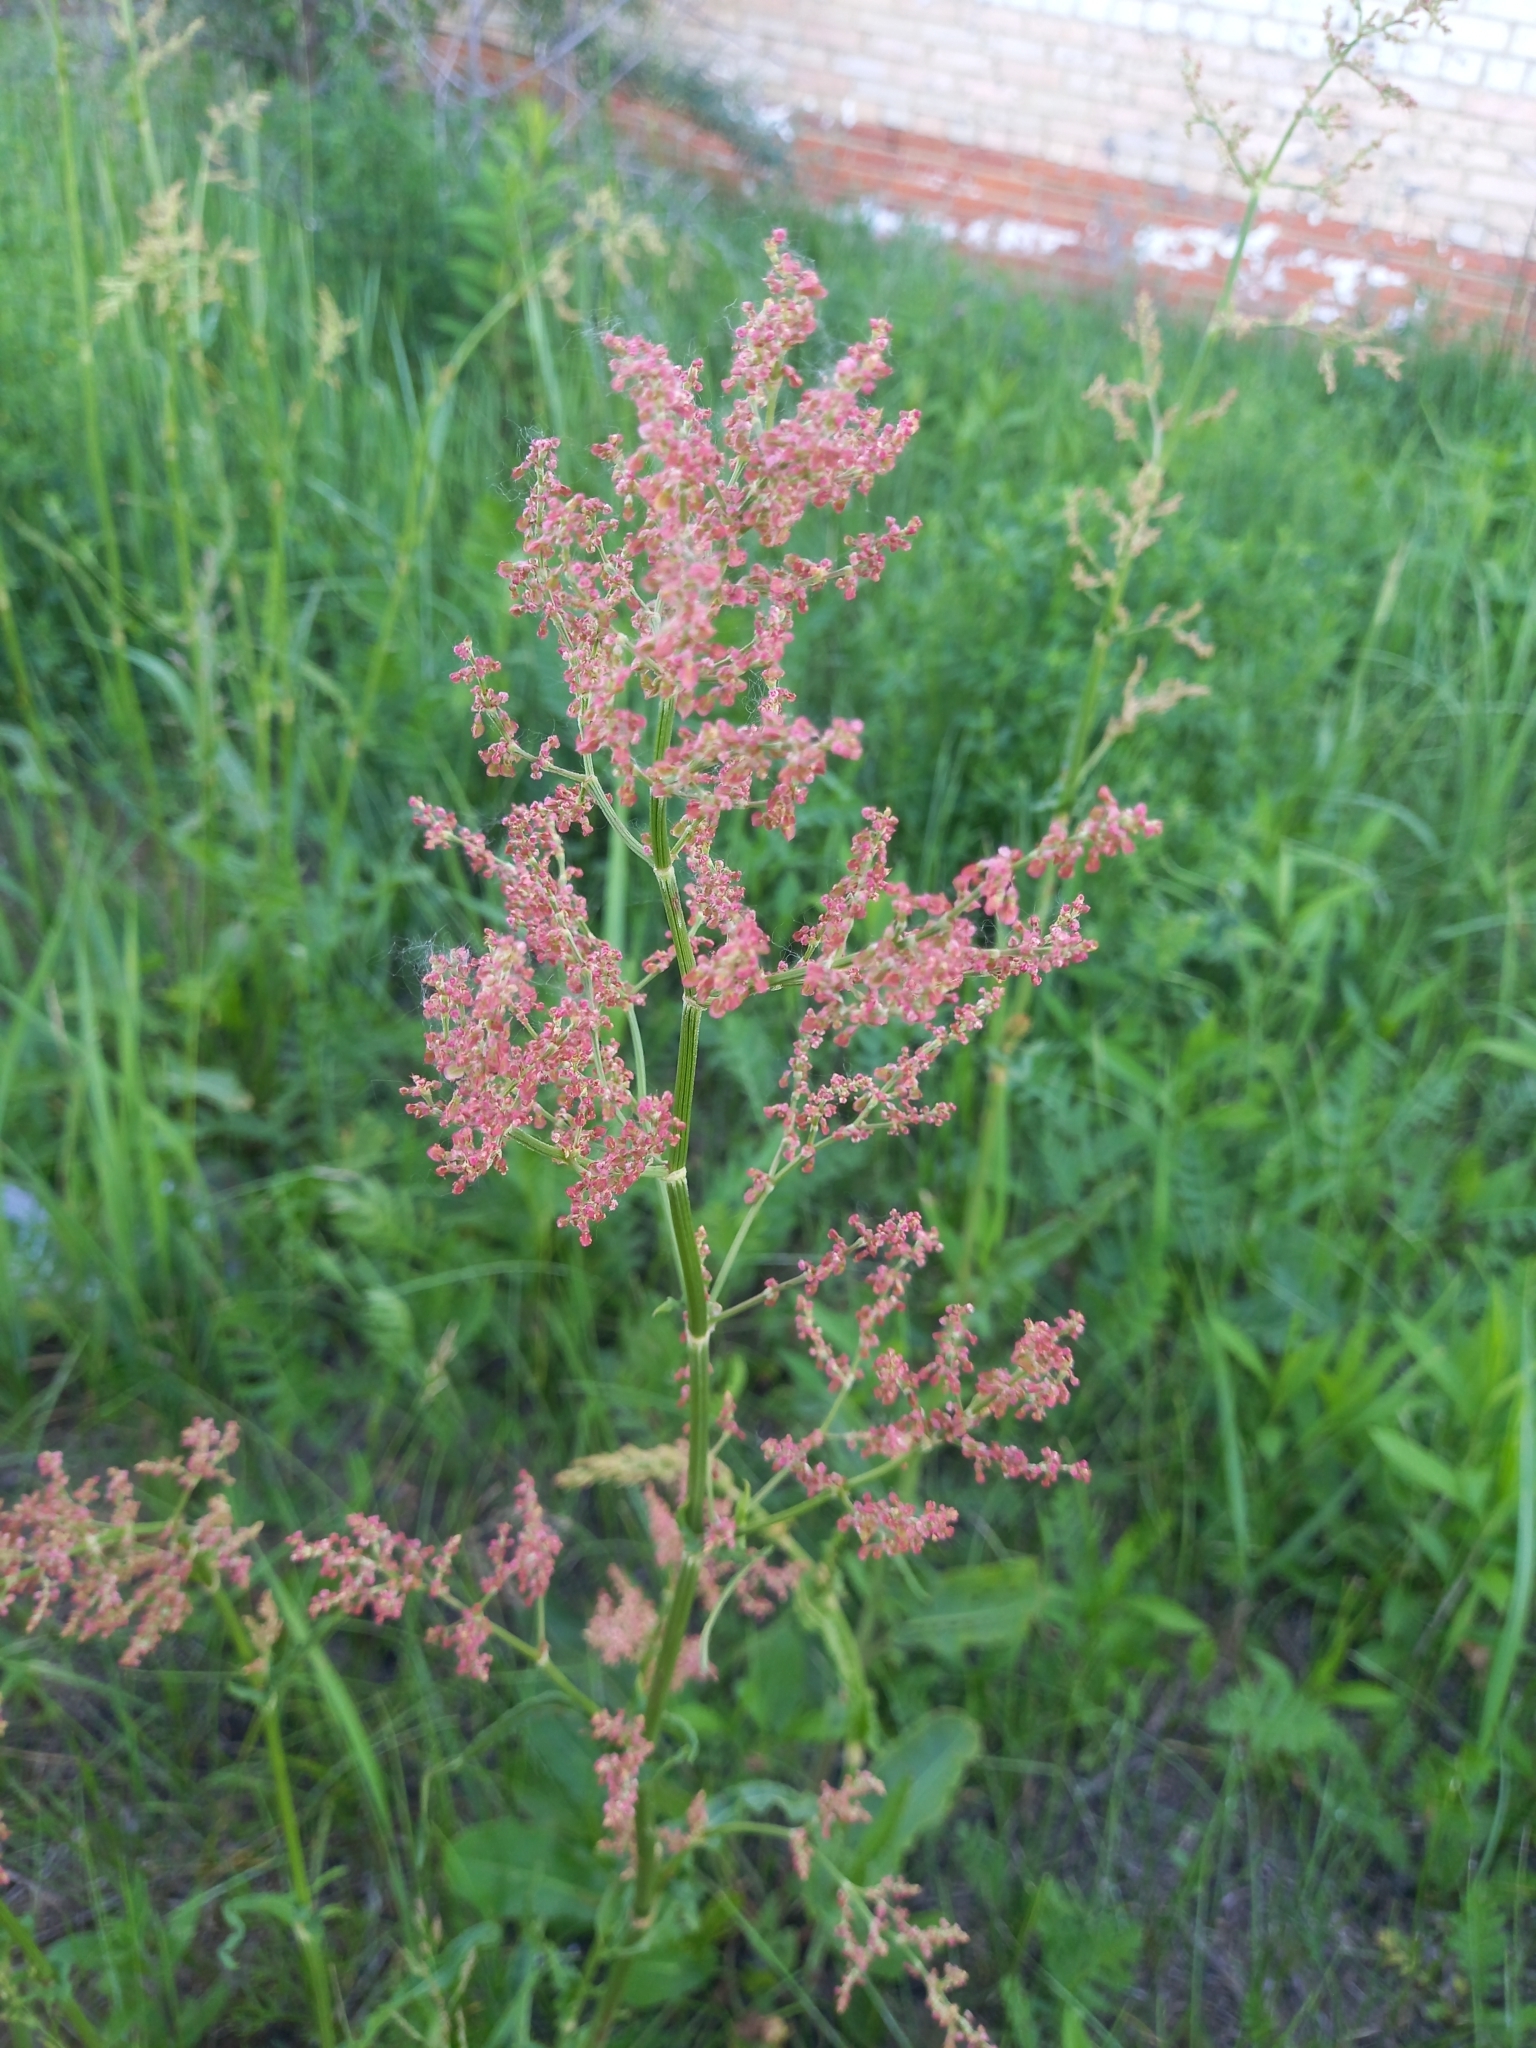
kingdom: Plantae
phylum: Tracheophyta
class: Magnoliopsida
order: Caryophyllales
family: Polygonaceae
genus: Rumex
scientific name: Rumex thyrsiflorus
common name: Garden sorrel
